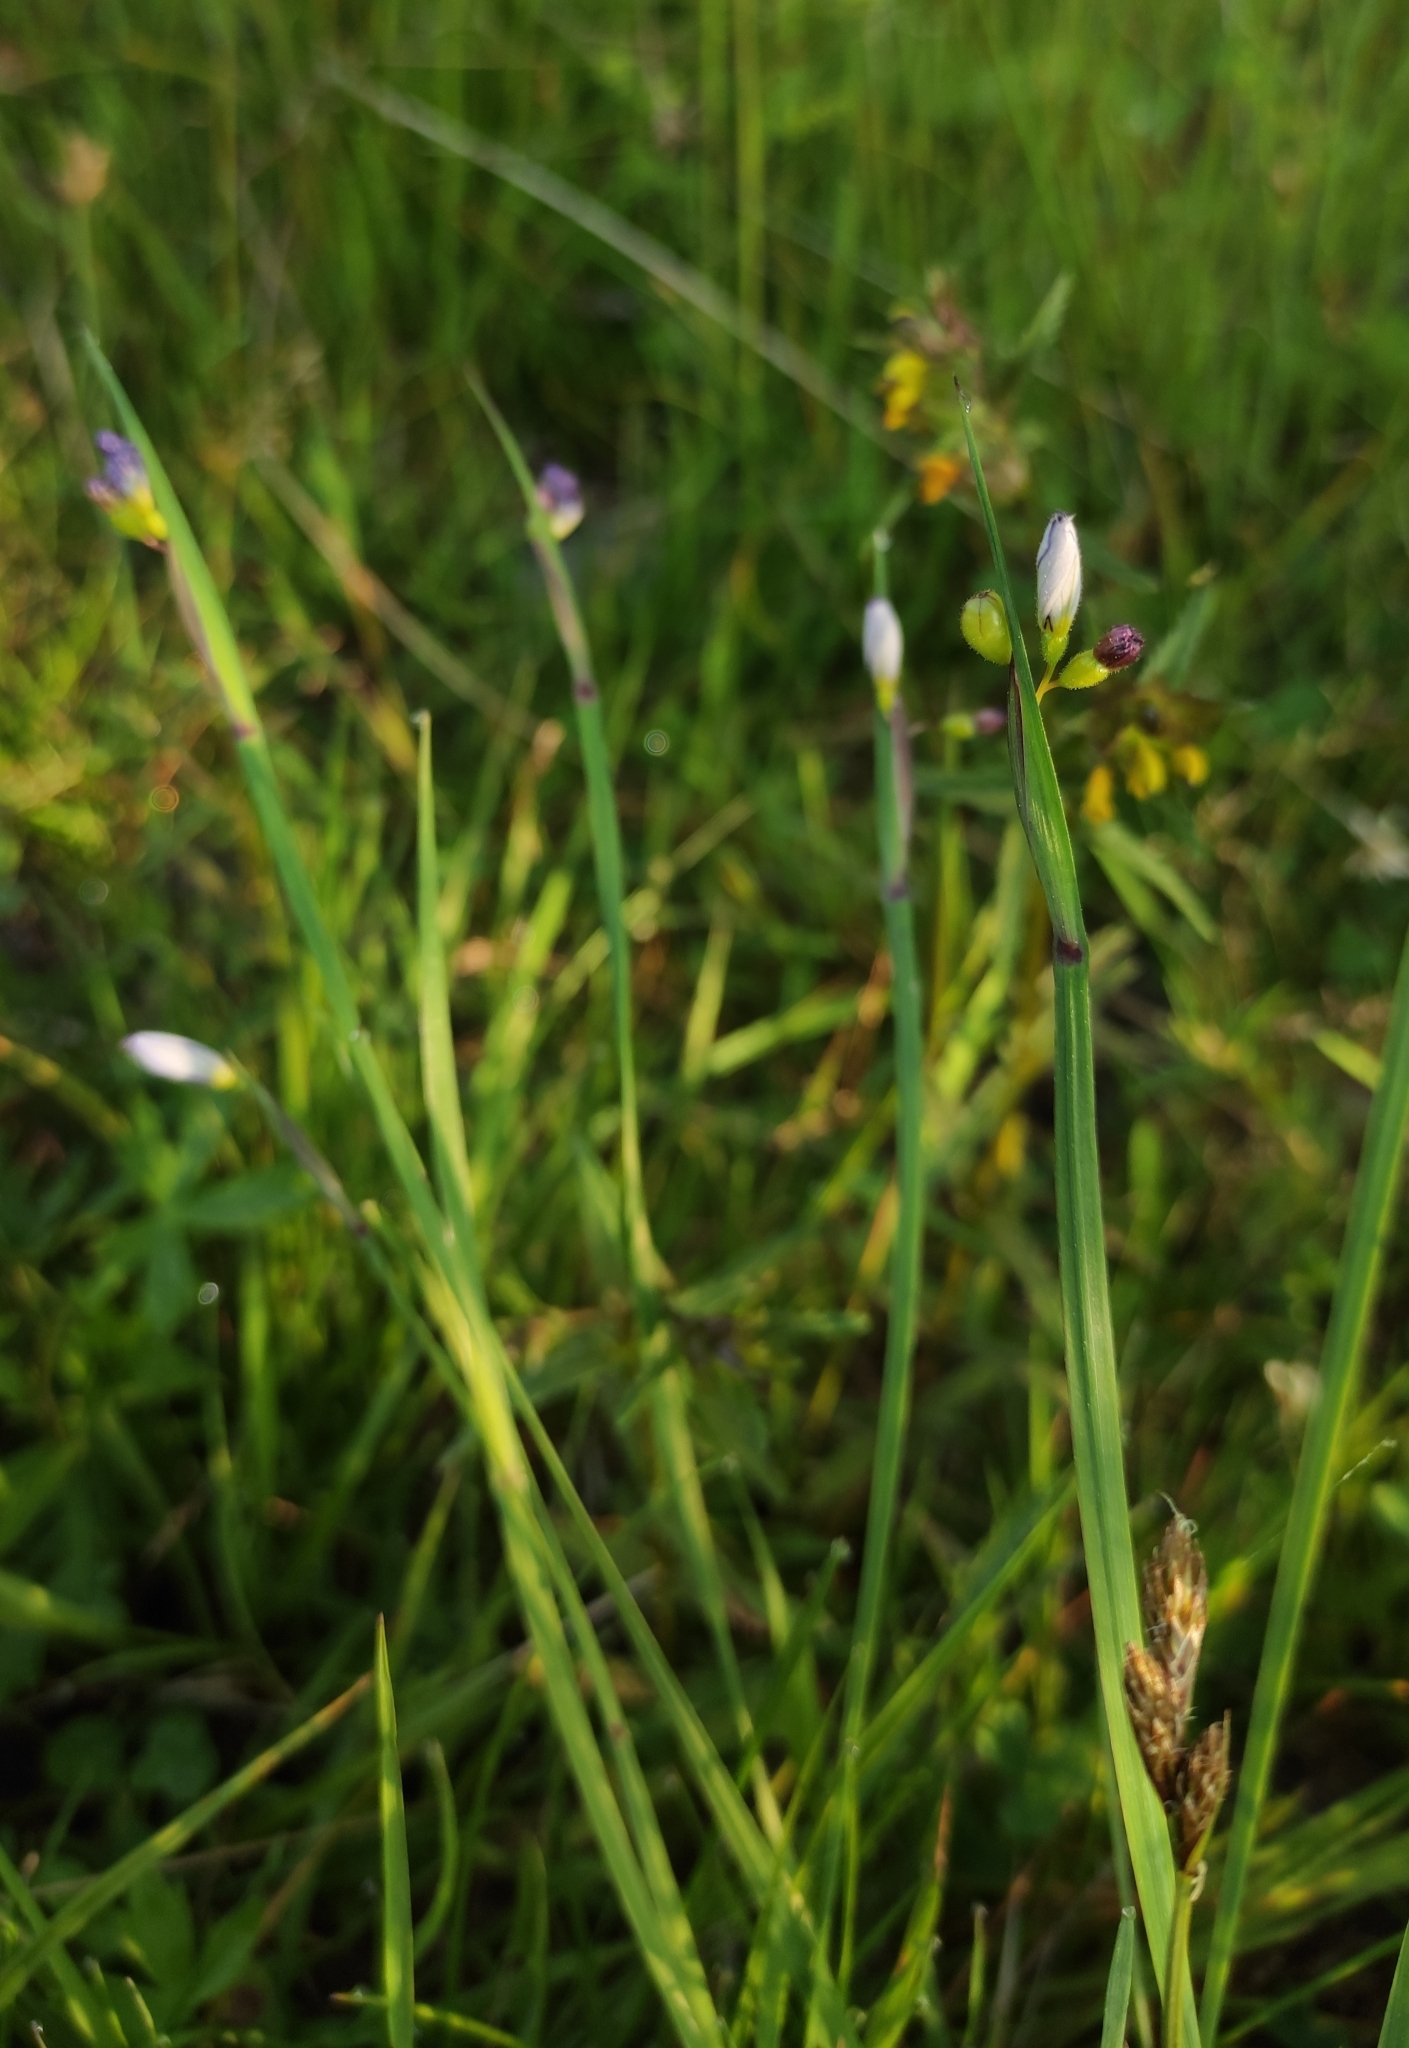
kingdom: Plantae
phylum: Tracheophyta
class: Liliopsida
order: Asparagales
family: Iridaceae
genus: Sisyrinchium
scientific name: Sisyrinchium montanum
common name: American blue-eyed-grass
